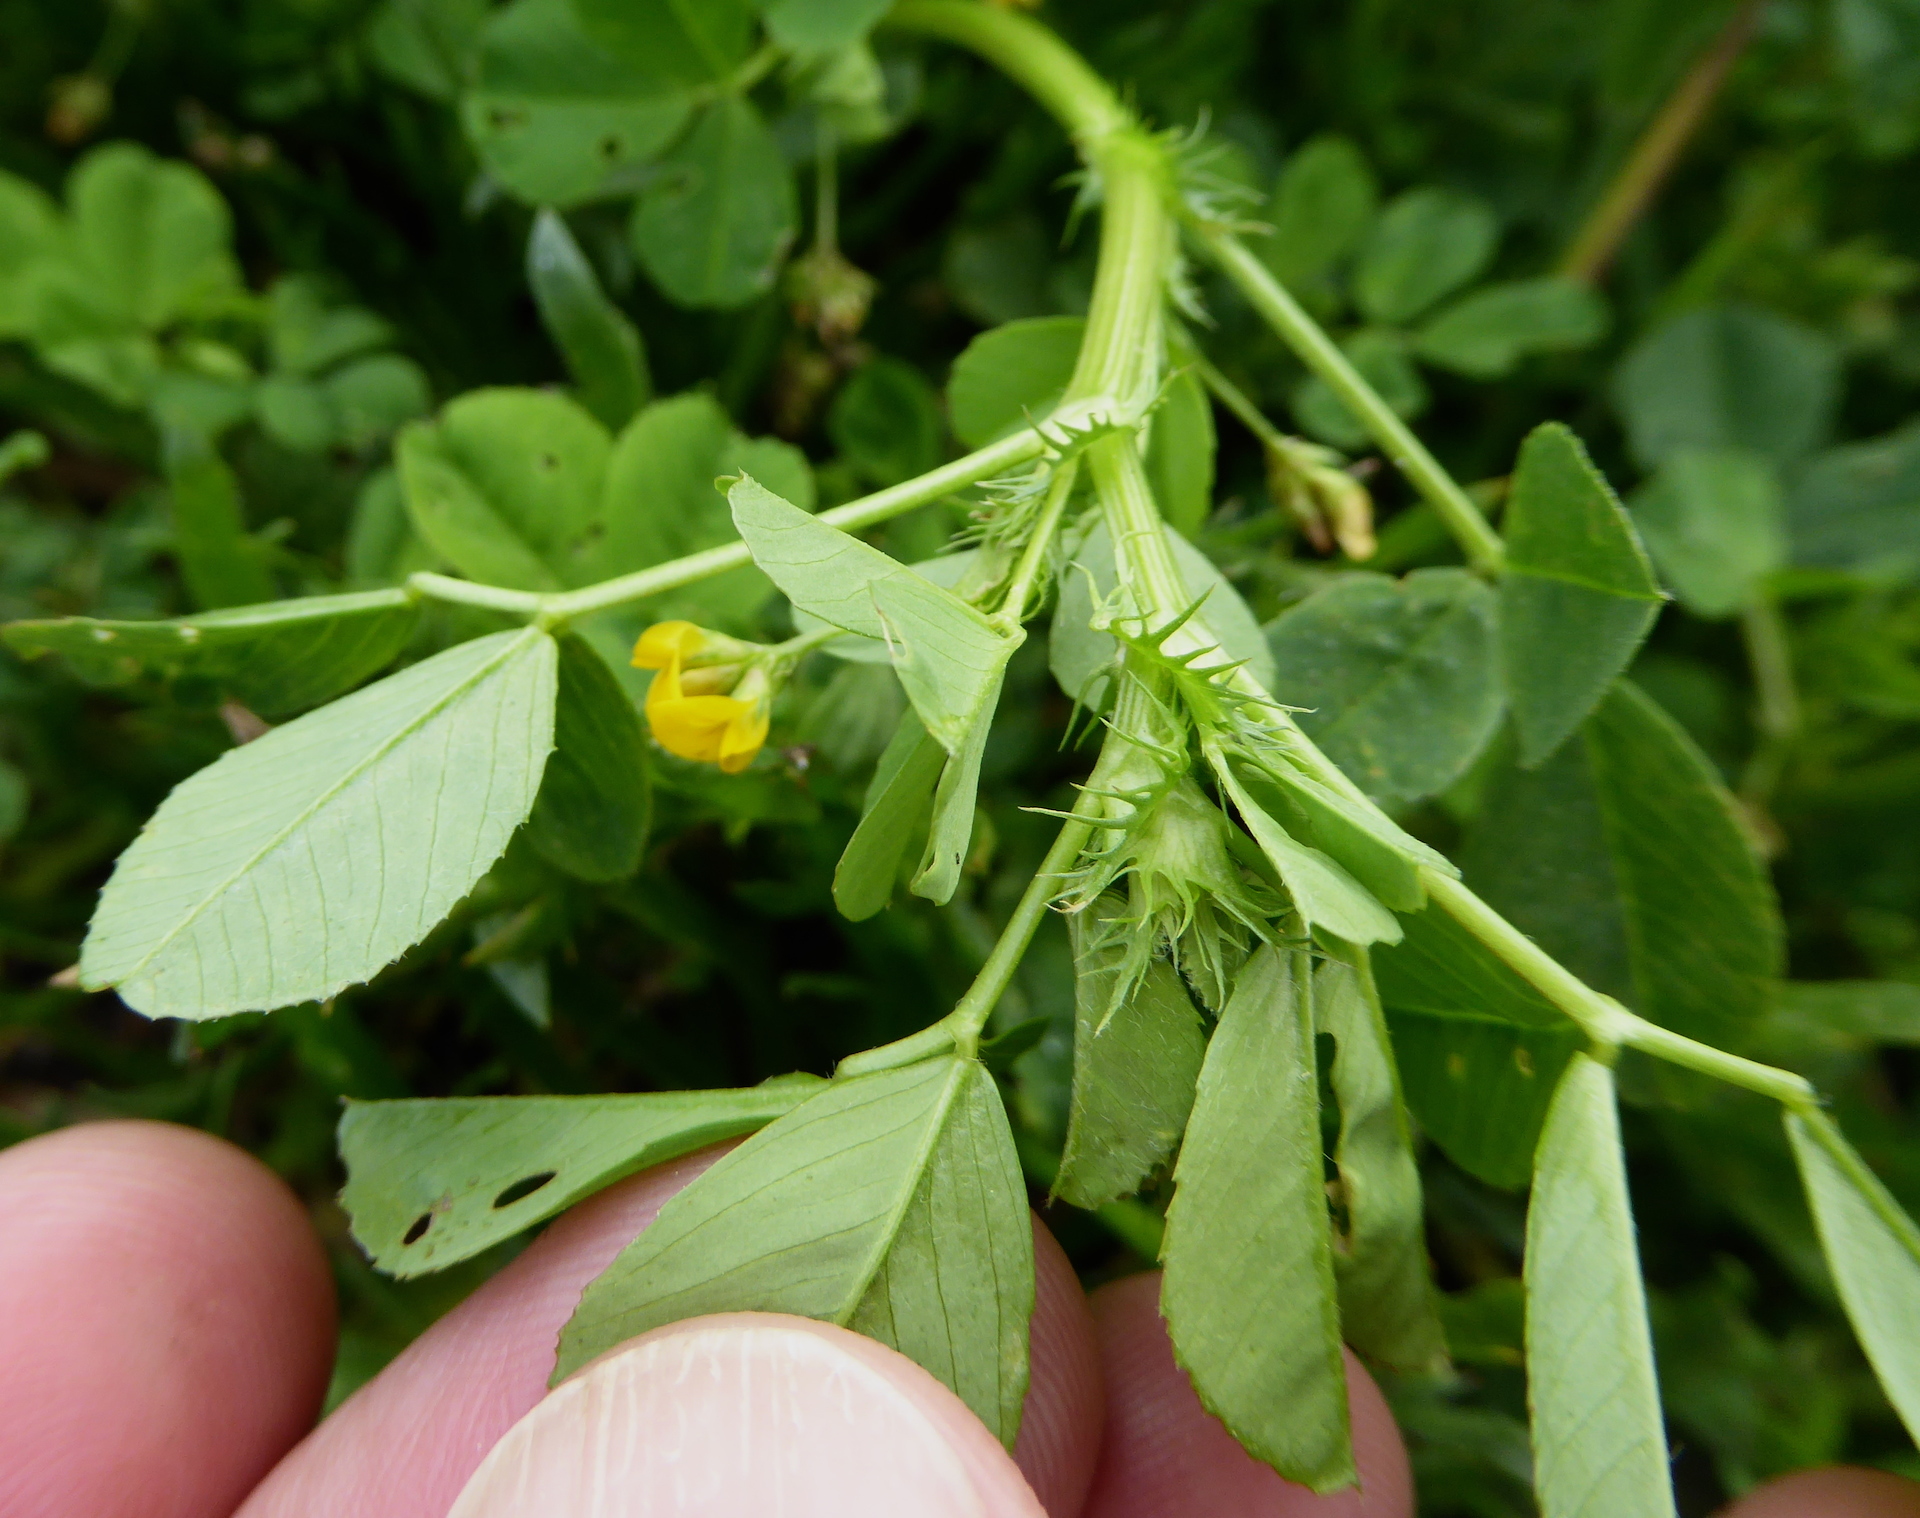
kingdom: Plantae
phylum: Tracheophyta
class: Magnoliopsida
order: Fabales
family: Fabaceae
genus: Medicago
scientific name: Medicago polymorpha
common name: Burclover
